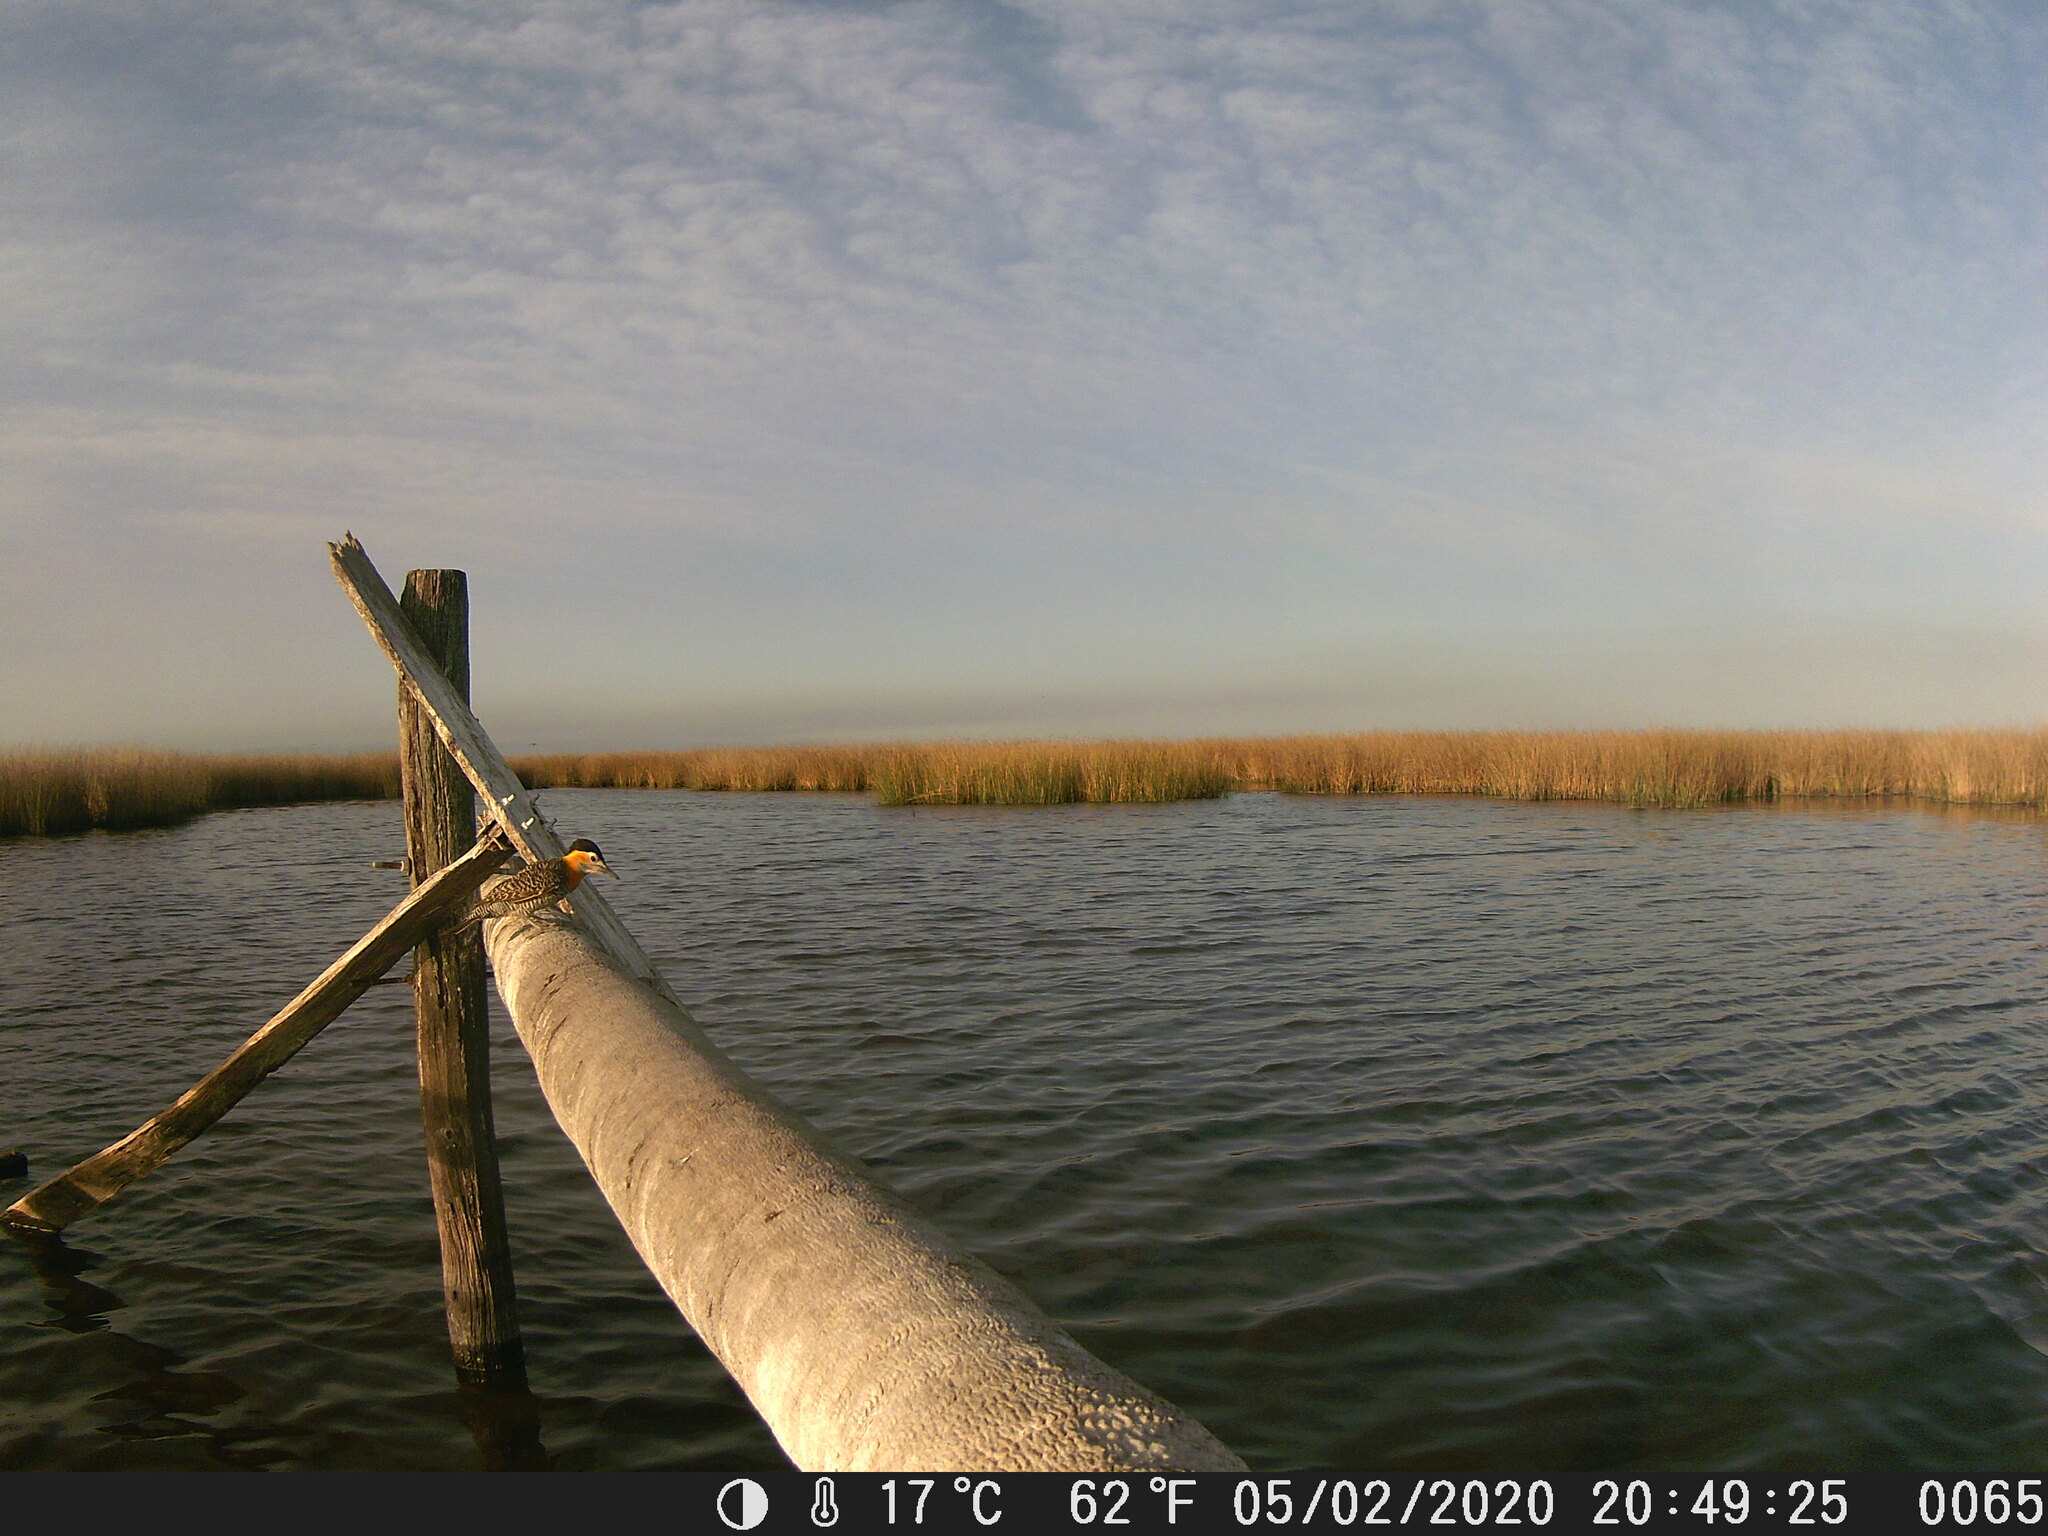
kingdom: Animalia
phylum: Chordata
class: Aves
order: Piciformes
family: Picidae
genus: Colaptes
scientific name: Colaptes campestris
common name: Campo flicker
